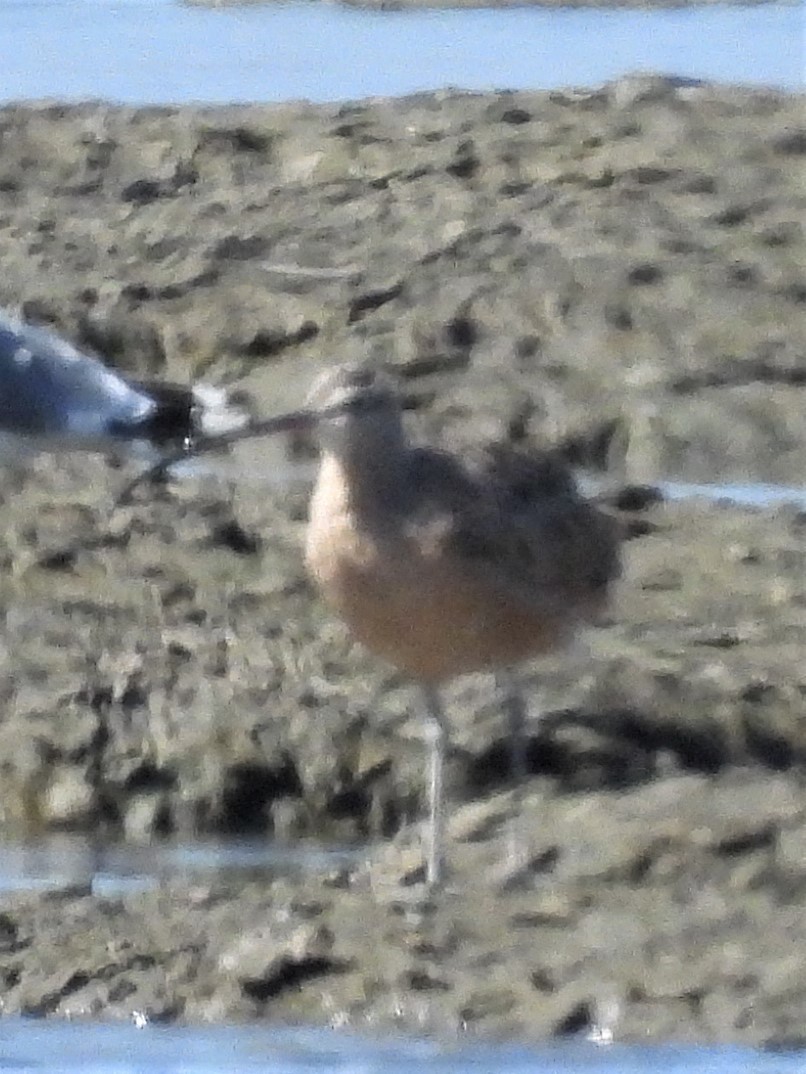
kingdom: Animalia
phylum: Chordata
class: Aves
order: Charadriiformes
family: Scolopacidae
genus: Numenius
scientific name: Numenius phaeopus
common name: Whimbrel
